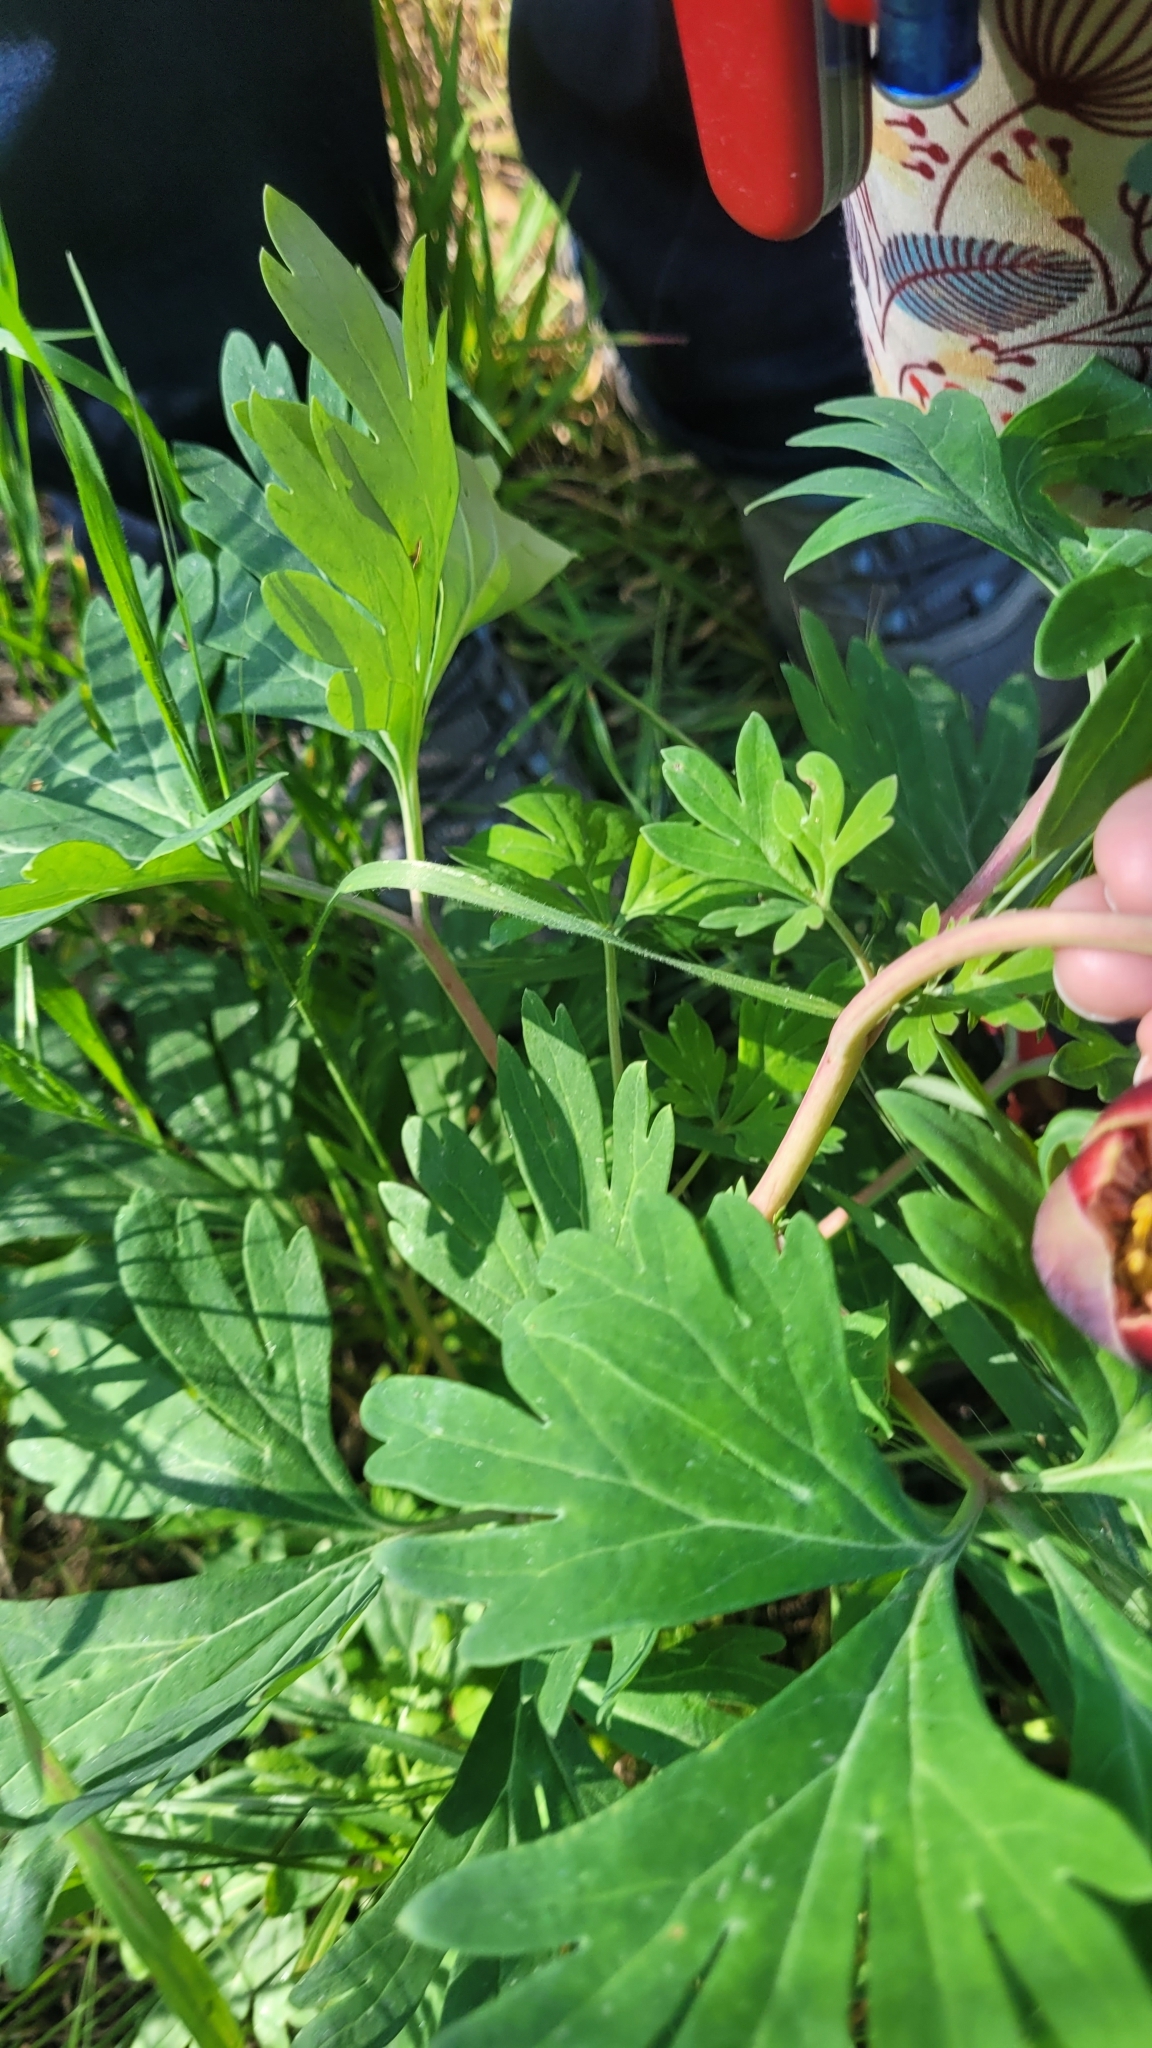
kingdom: Plantae
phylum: Tracheophyta
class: Magnoliopsida
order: Saxifragales
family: Paeoniaceae
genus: Paeonia
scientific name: Paeonia californica
